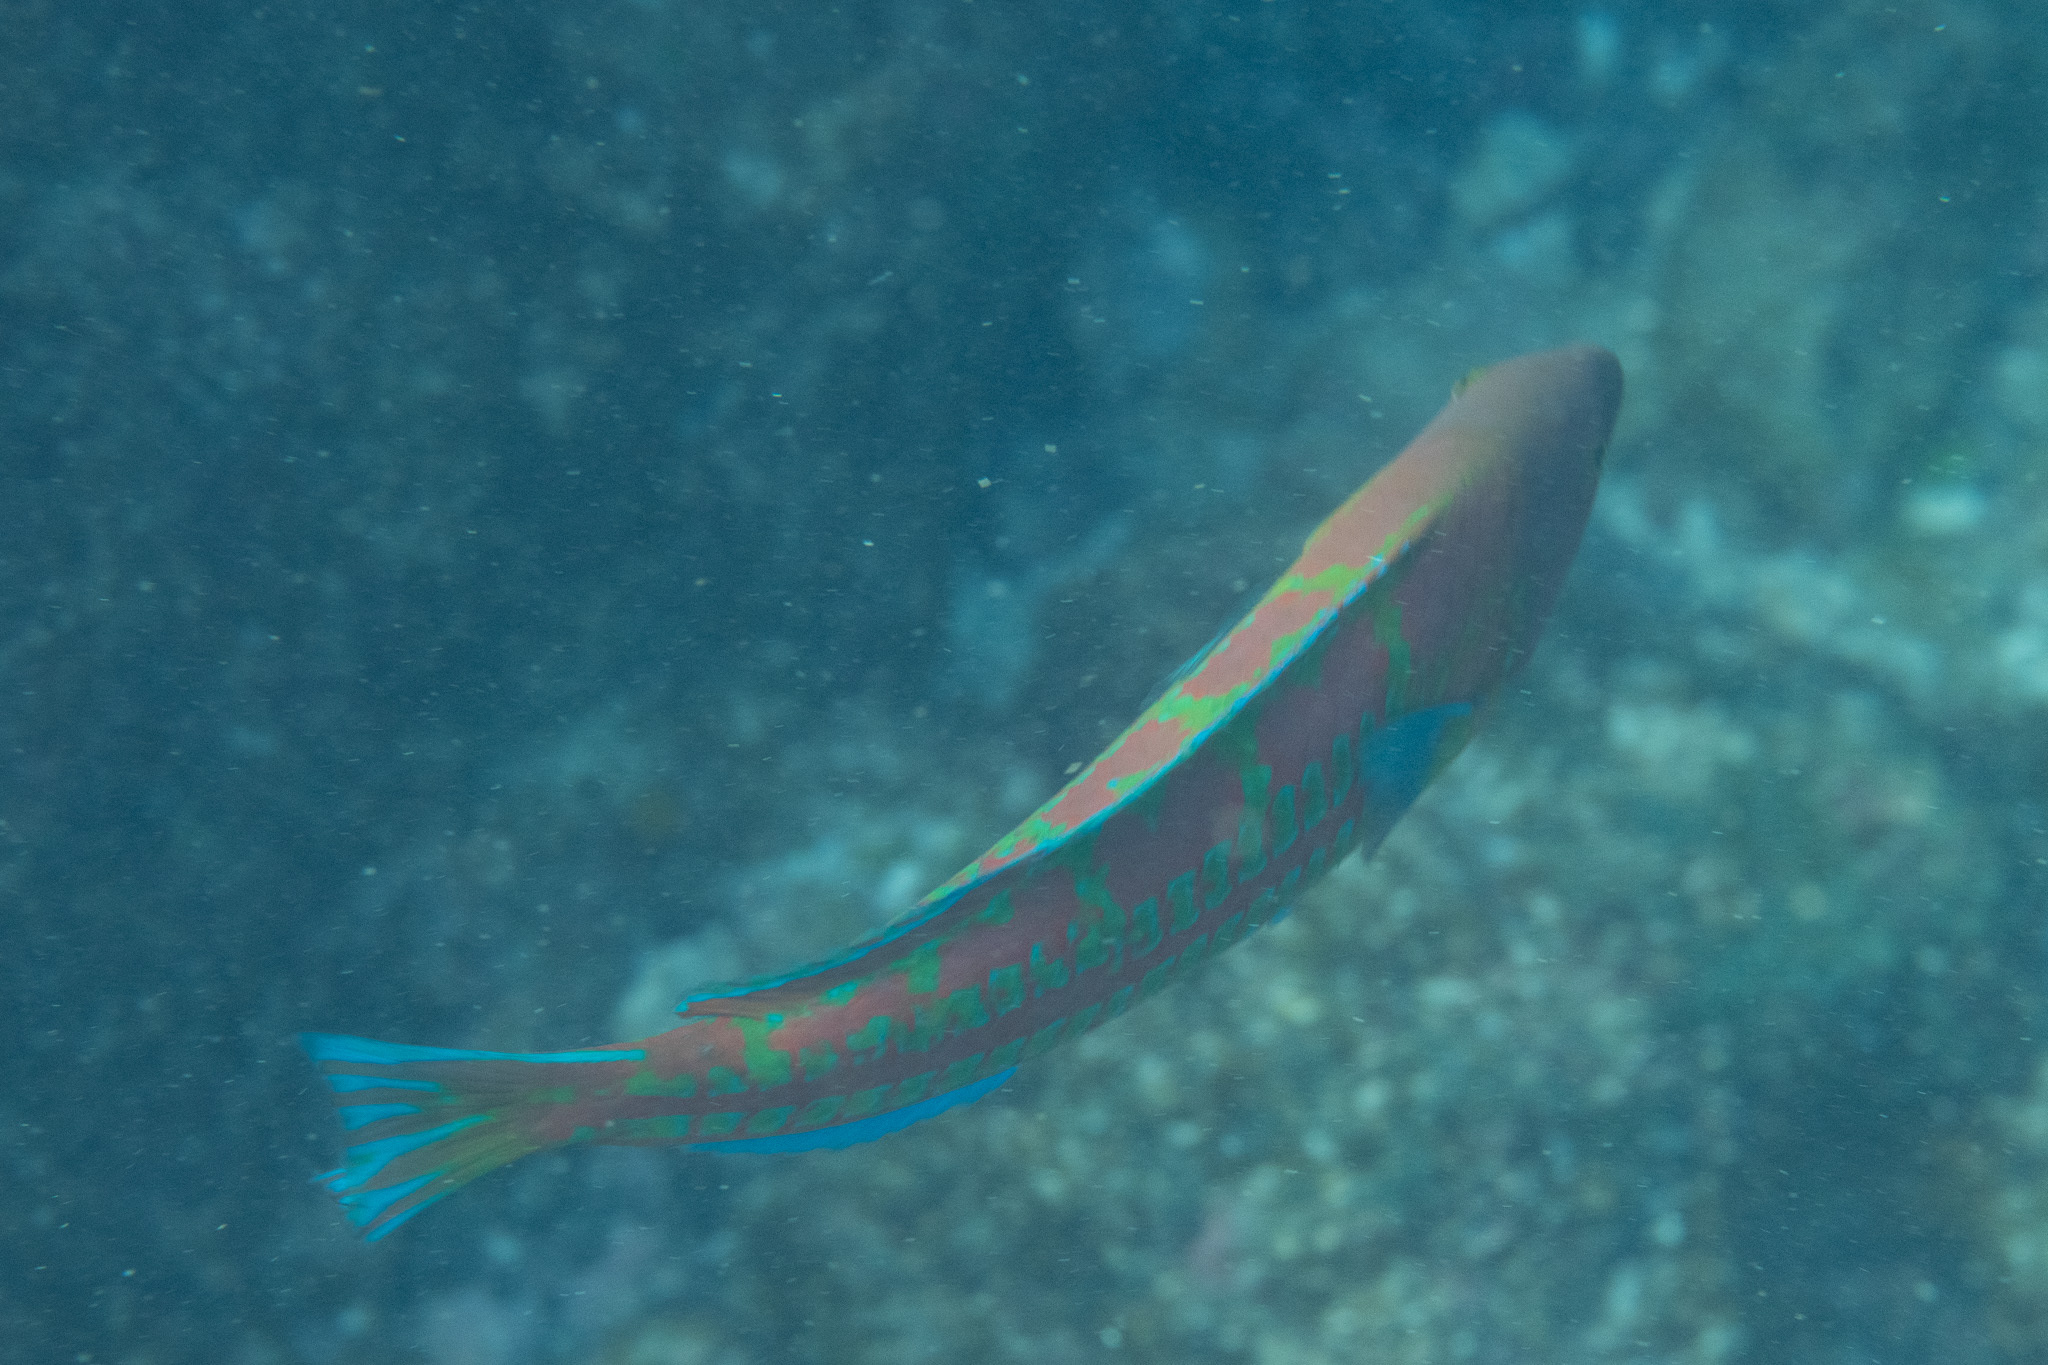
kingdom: Animalia
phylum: Chordata
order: Perciformes
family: Labridae
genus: Thalassoma
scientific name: Thalassoma trilobatum
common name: Christmas wrasse
